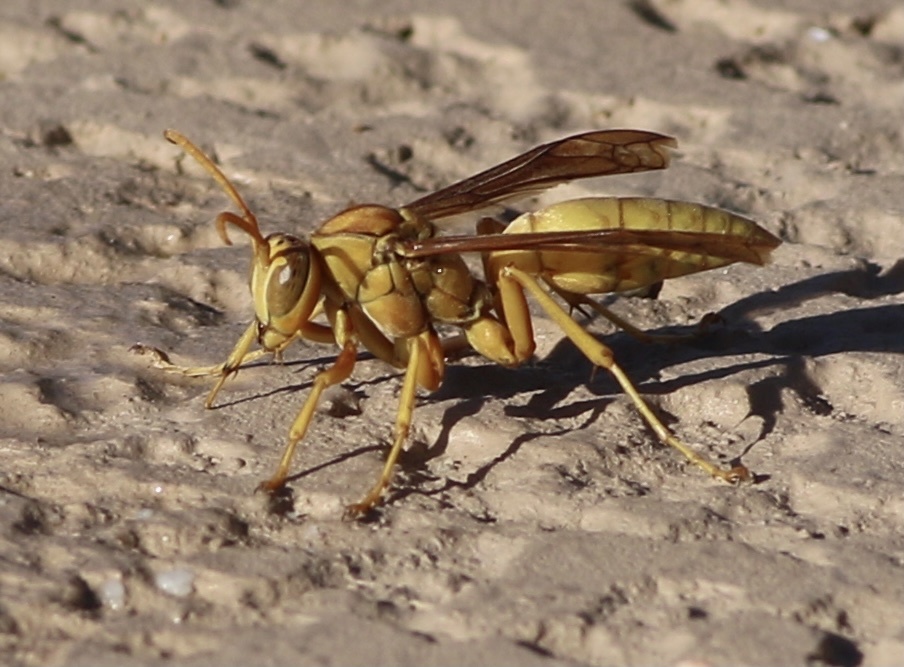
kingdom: Animalia
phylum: Arthropoda
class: Insecta
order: Hymenoptera
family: Eumenidae
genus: Polistes
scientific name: Polistes flavus
